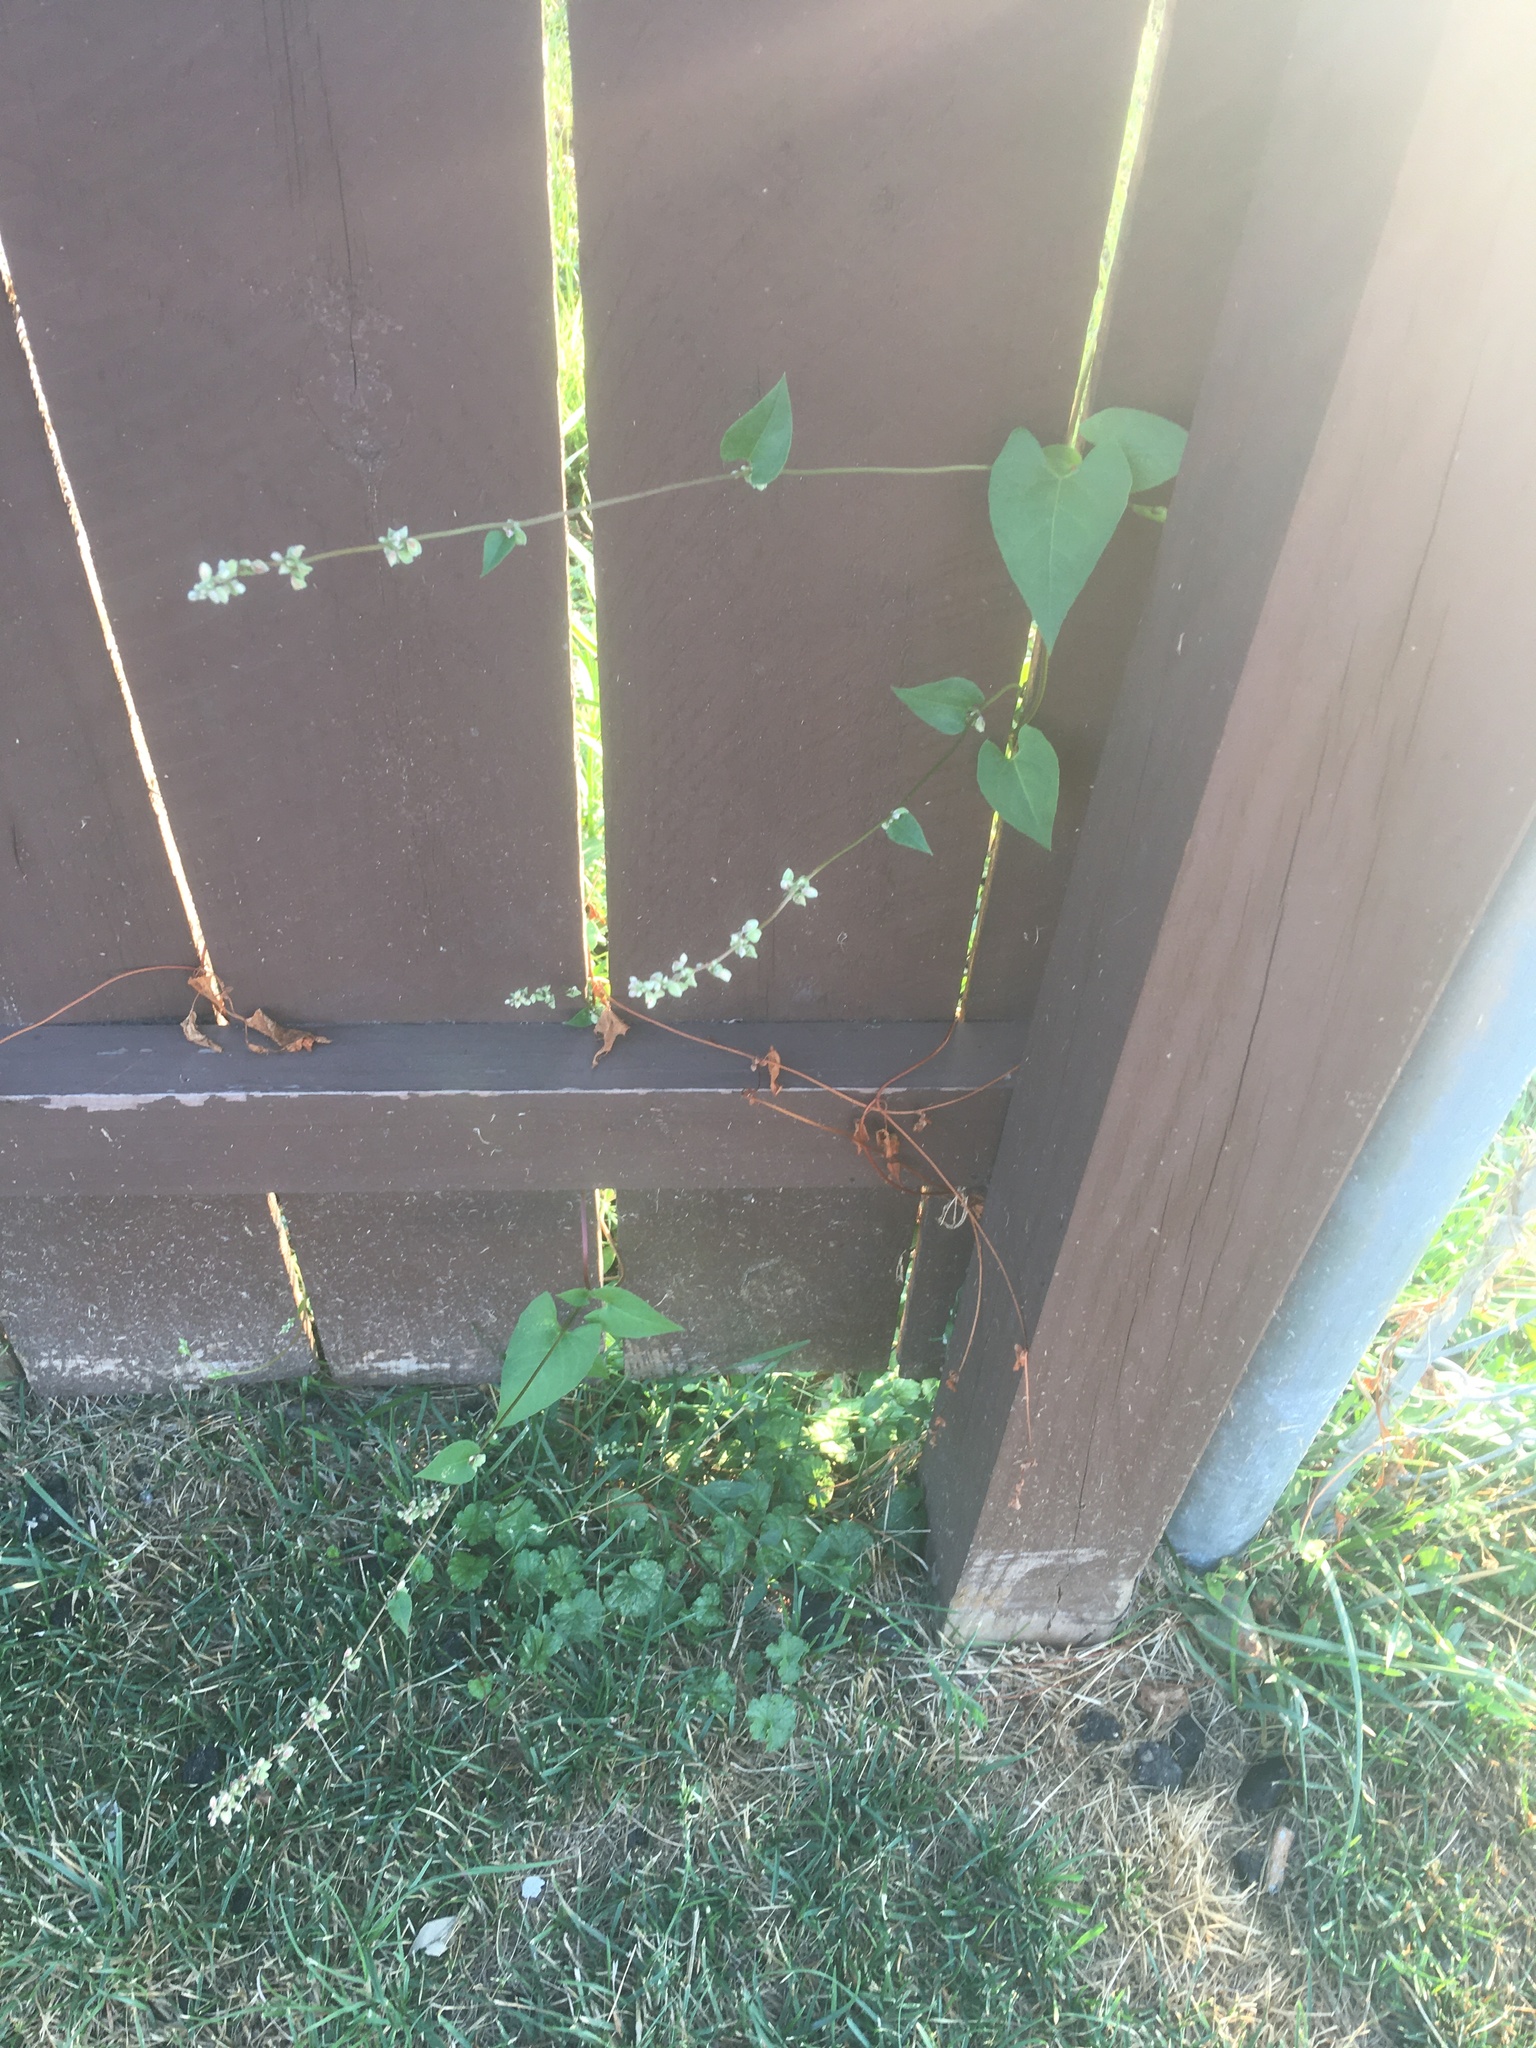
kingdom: Plantae
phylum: Tracheophyta
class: Magnoliopsida
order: Caryophyllales
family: Polygonaceae
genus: Fallopia
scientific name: Fallopia convolvulus
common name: Black bindweed
